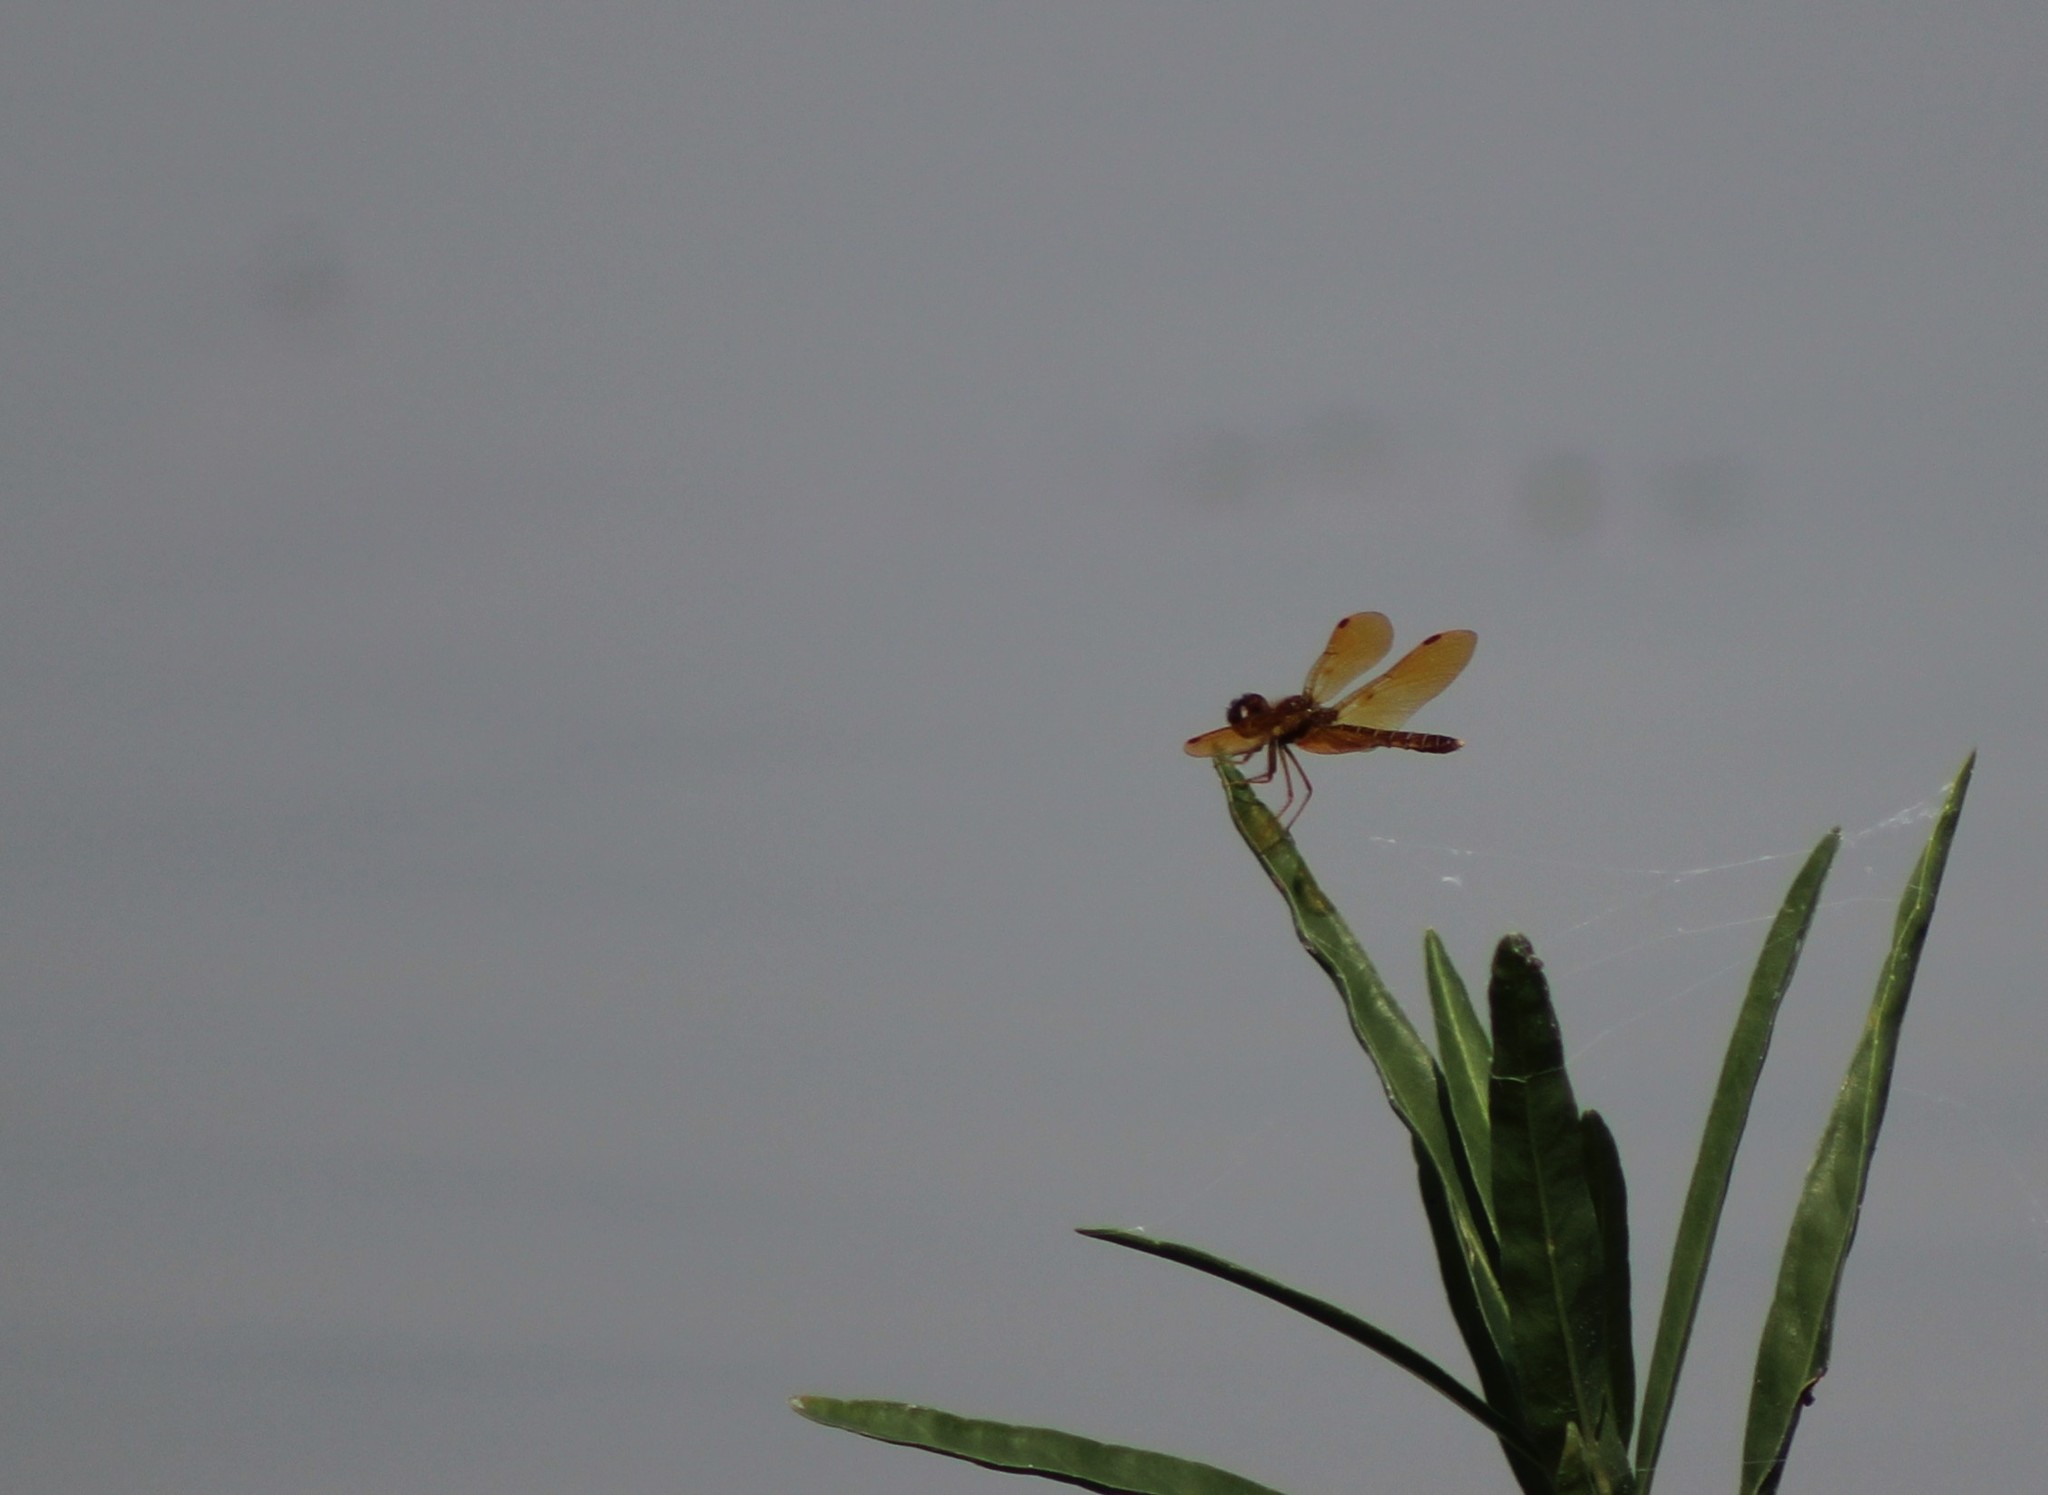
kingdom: Animalia
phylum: Arthropoda
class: Insecta
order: Odonata
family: Libellulidae
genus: Perithemis
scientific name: Perithemis tenera
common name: Eastern amberwing
